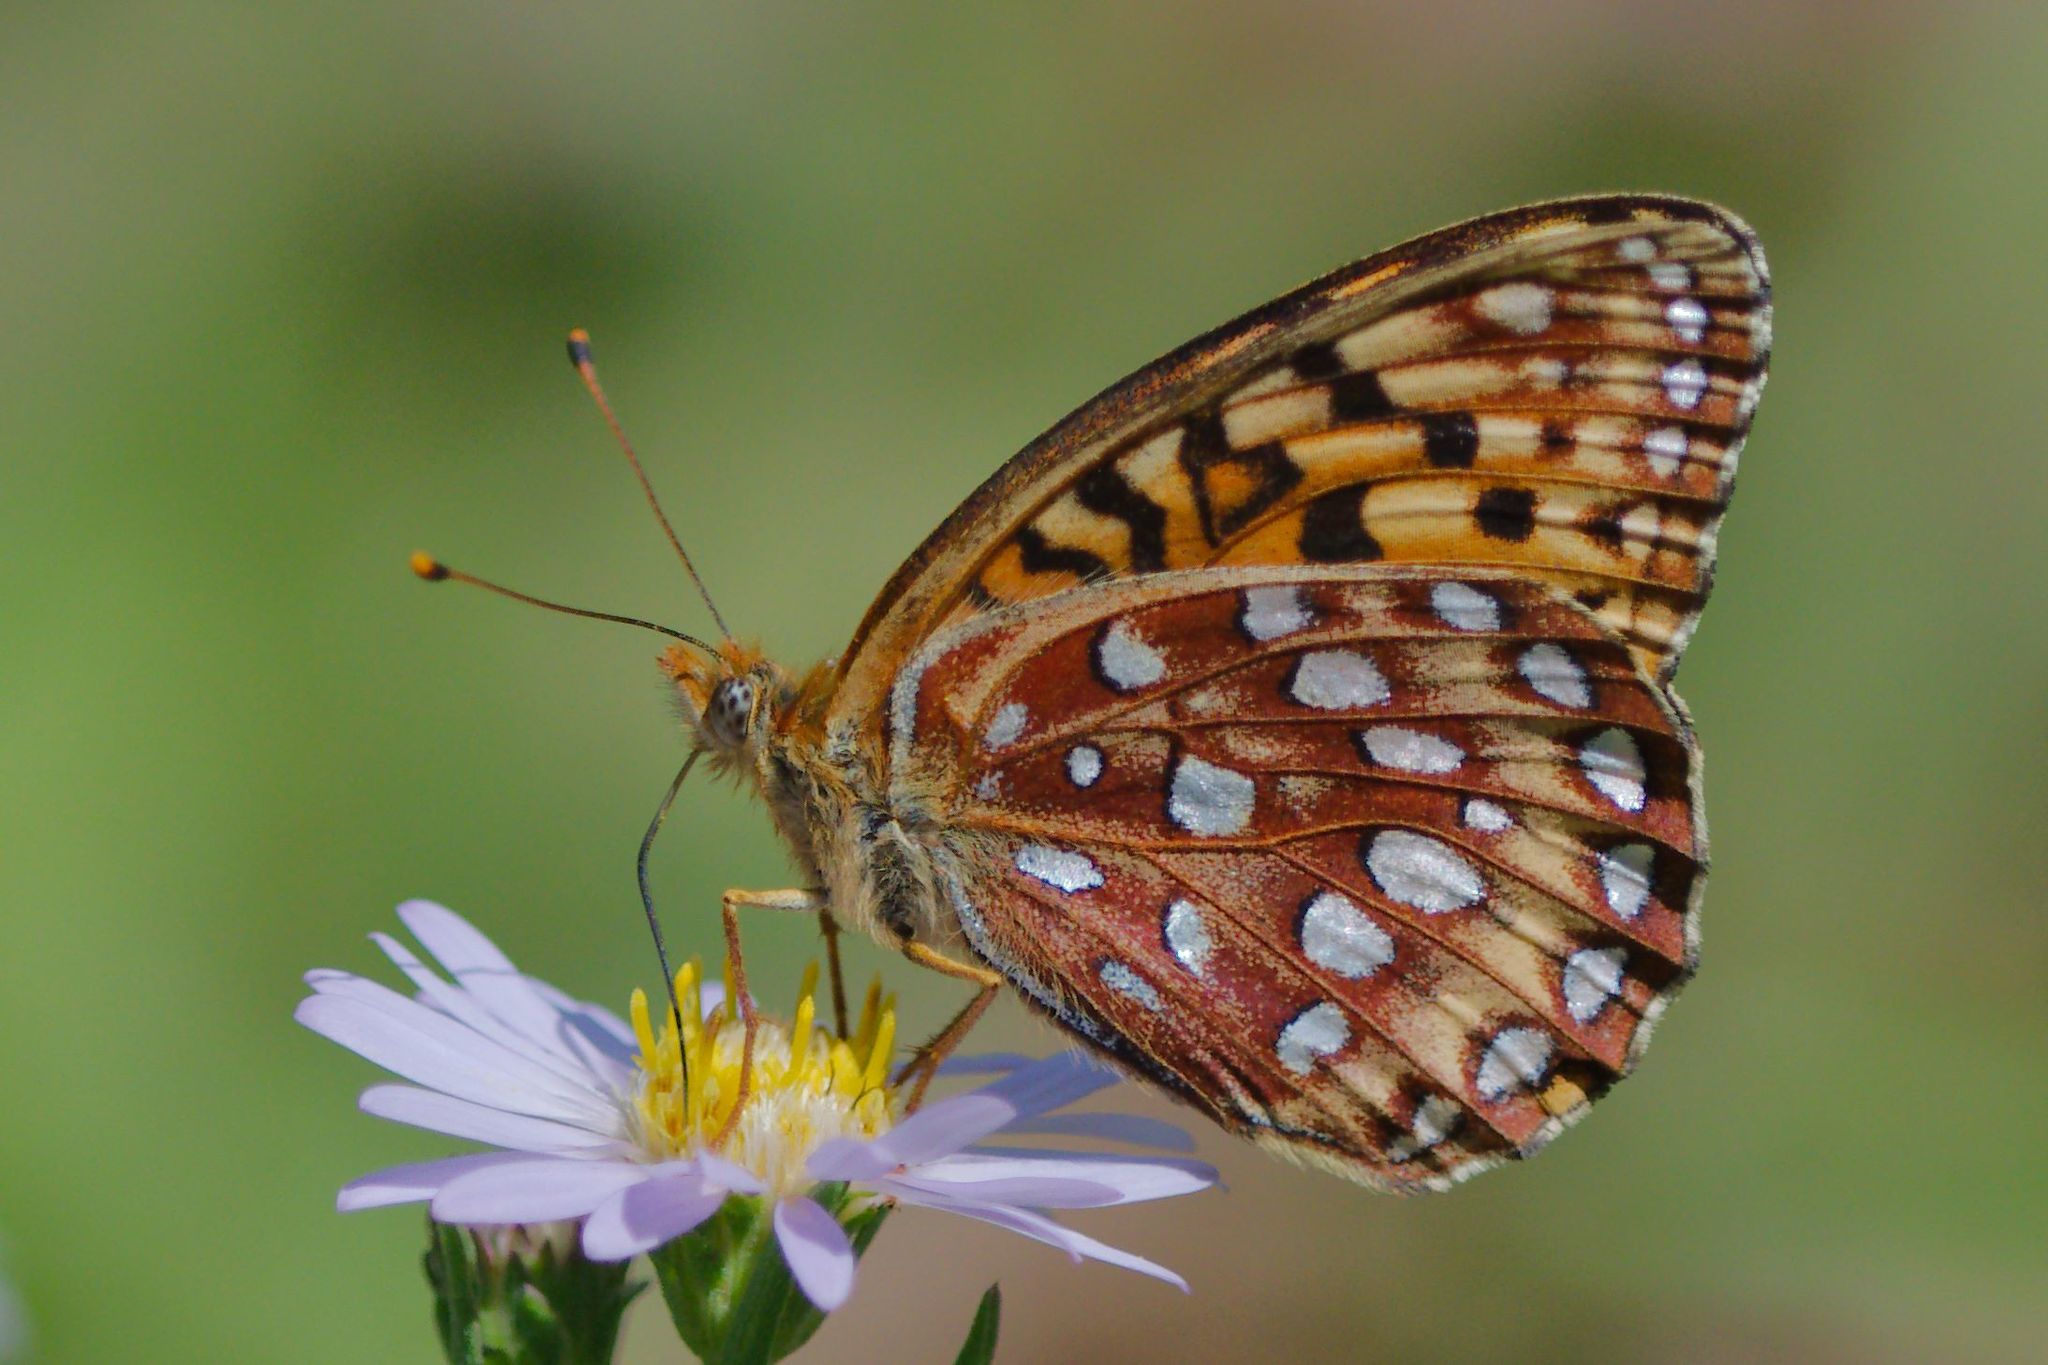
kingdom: Animalia
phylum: Arthropoda
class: Insecta
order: Lepidoptera
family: Nymphalidae
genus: Speyeria
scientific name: Speyeria atlantis
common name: Atlantis fritillary
